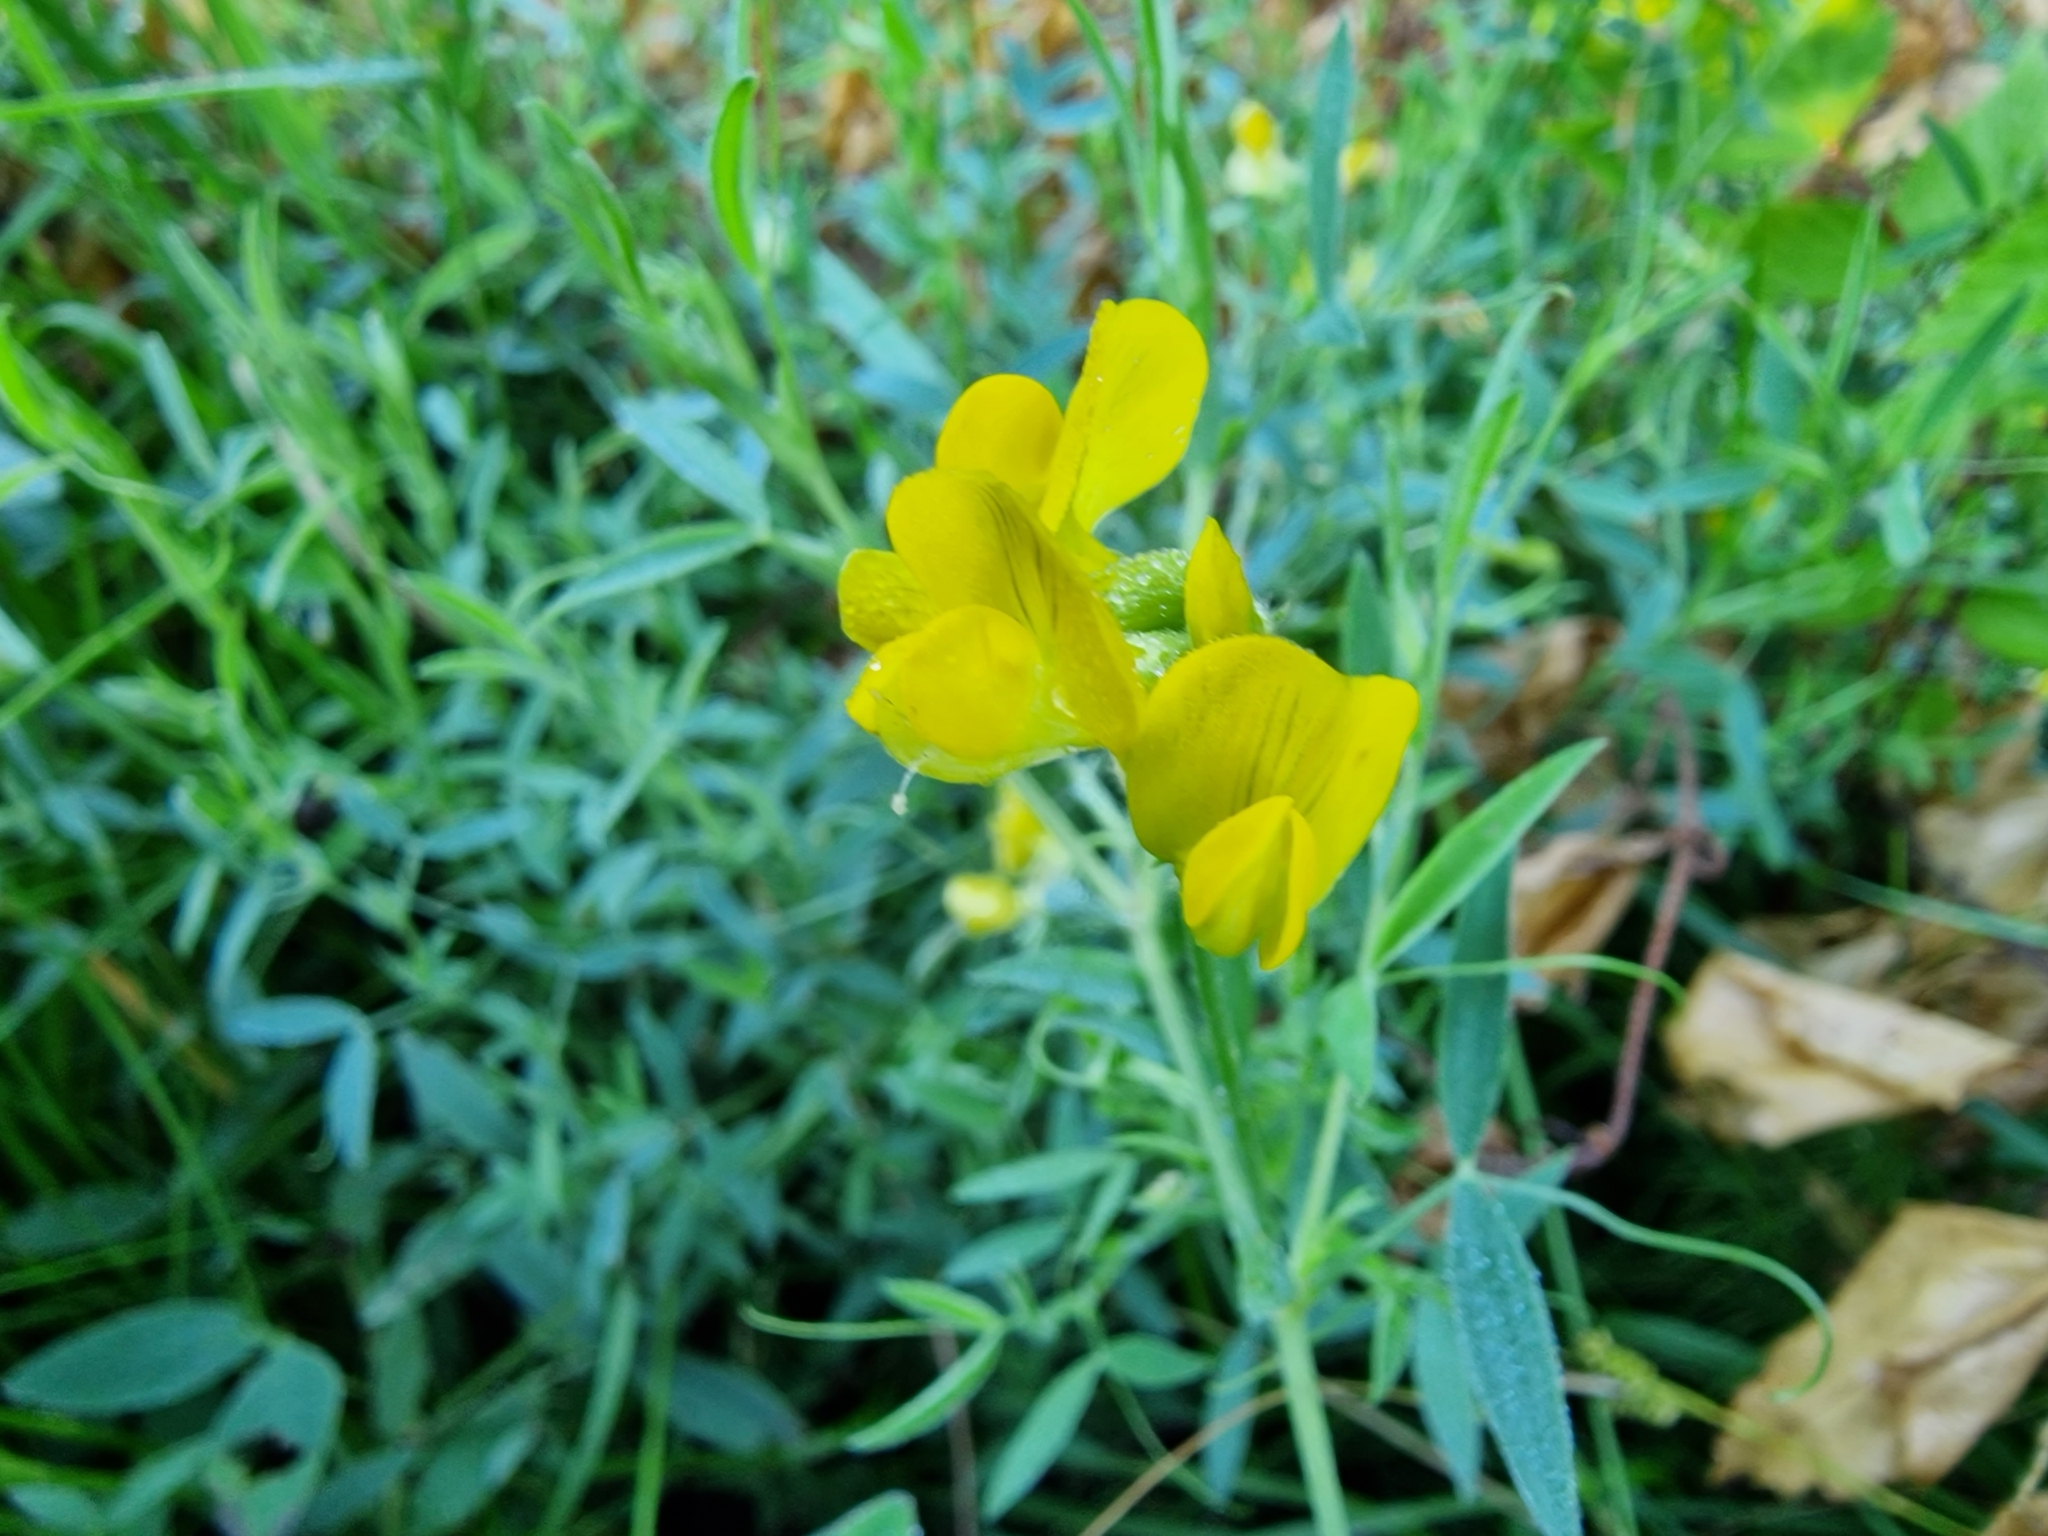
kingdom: Plantae
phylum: Tracheophyta
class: Magnoliopsida
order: Fabales
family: Fabaceae
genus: Lathyrus
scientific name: Lathyrus pratensis
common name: Meadow vetchling
